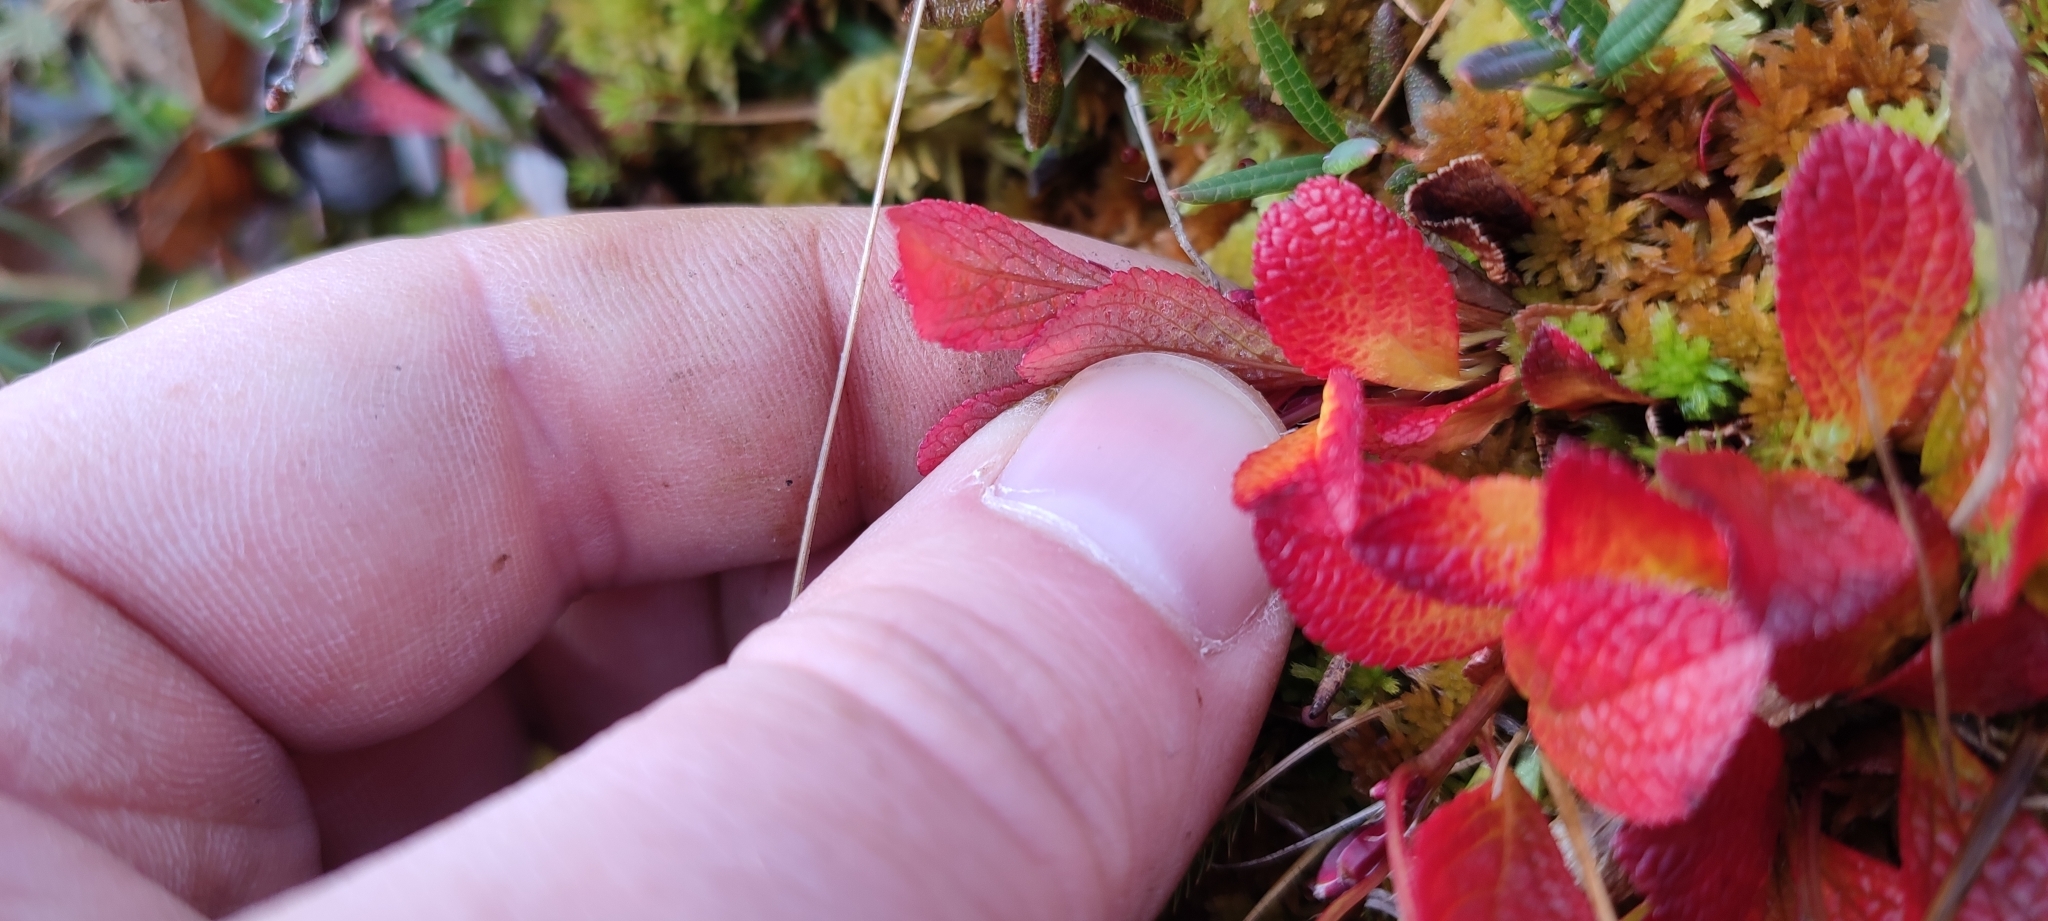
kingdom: Plantae
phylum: Tracheophyta
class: Magnoliopsida
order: Ericales
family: Ericaceae
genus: Arctostaphylos
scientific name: Arctostaphylos alpinus
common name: Alpine bearberry
